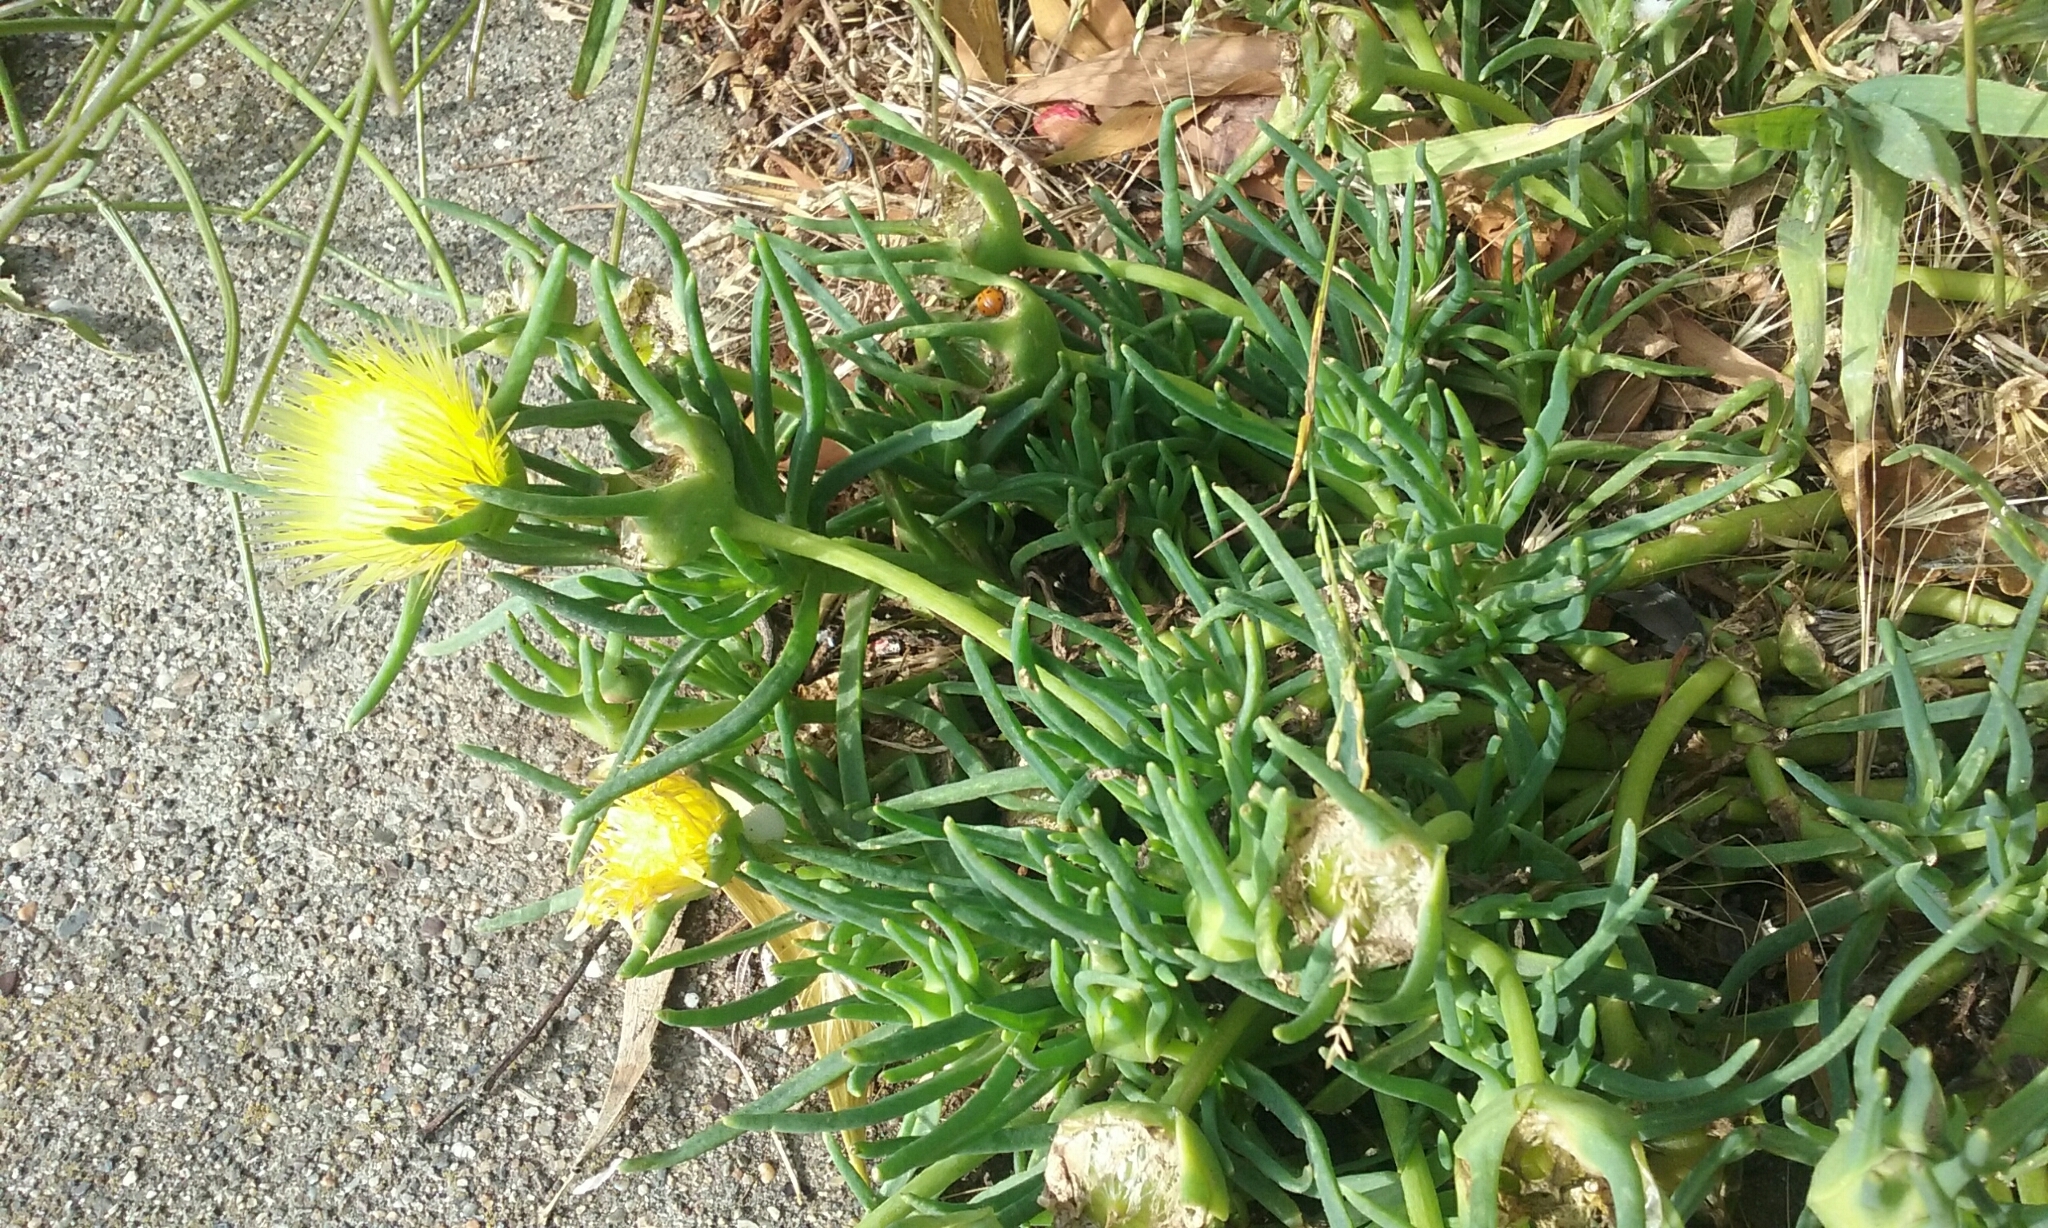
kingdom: Plantae
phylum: Tracheophyta
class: Magnoliopsida
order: Caryophyllales
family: Aizoaceae
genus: Conicosia
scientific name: Conicosia pugioniformis
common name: Narrow-leaved iceplant
